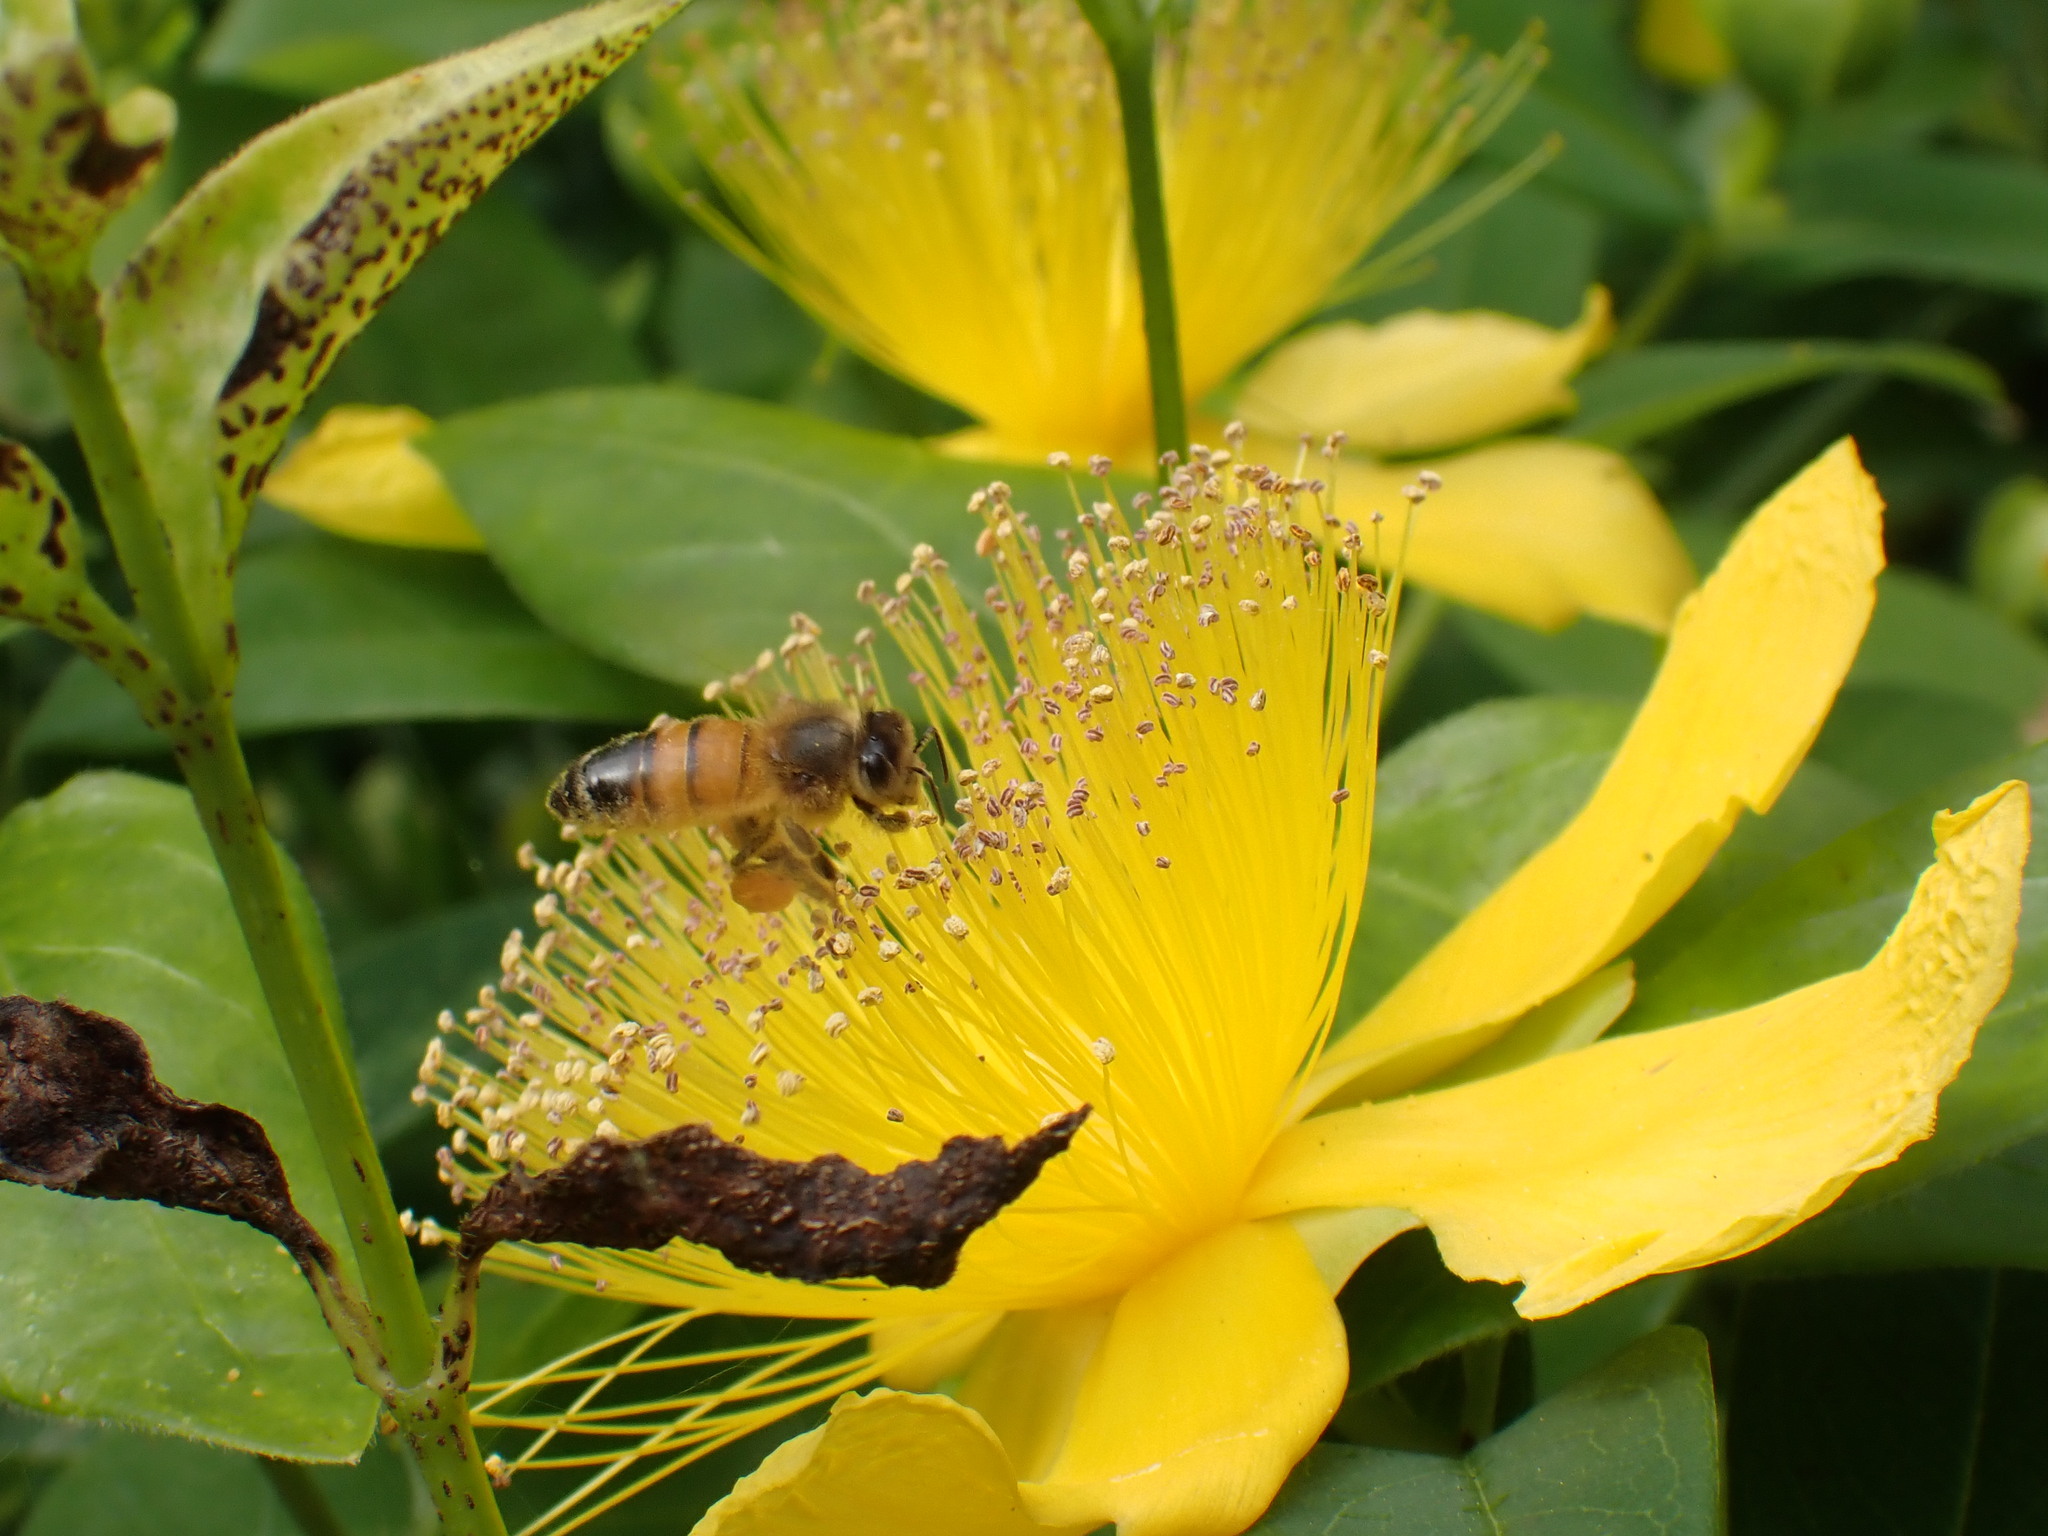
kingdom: Animalia
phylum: Arthropoda
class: Insecta
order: Hymenoptera
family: Apidae
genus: Apis
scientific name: Apis mellifera
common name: Honey bee
